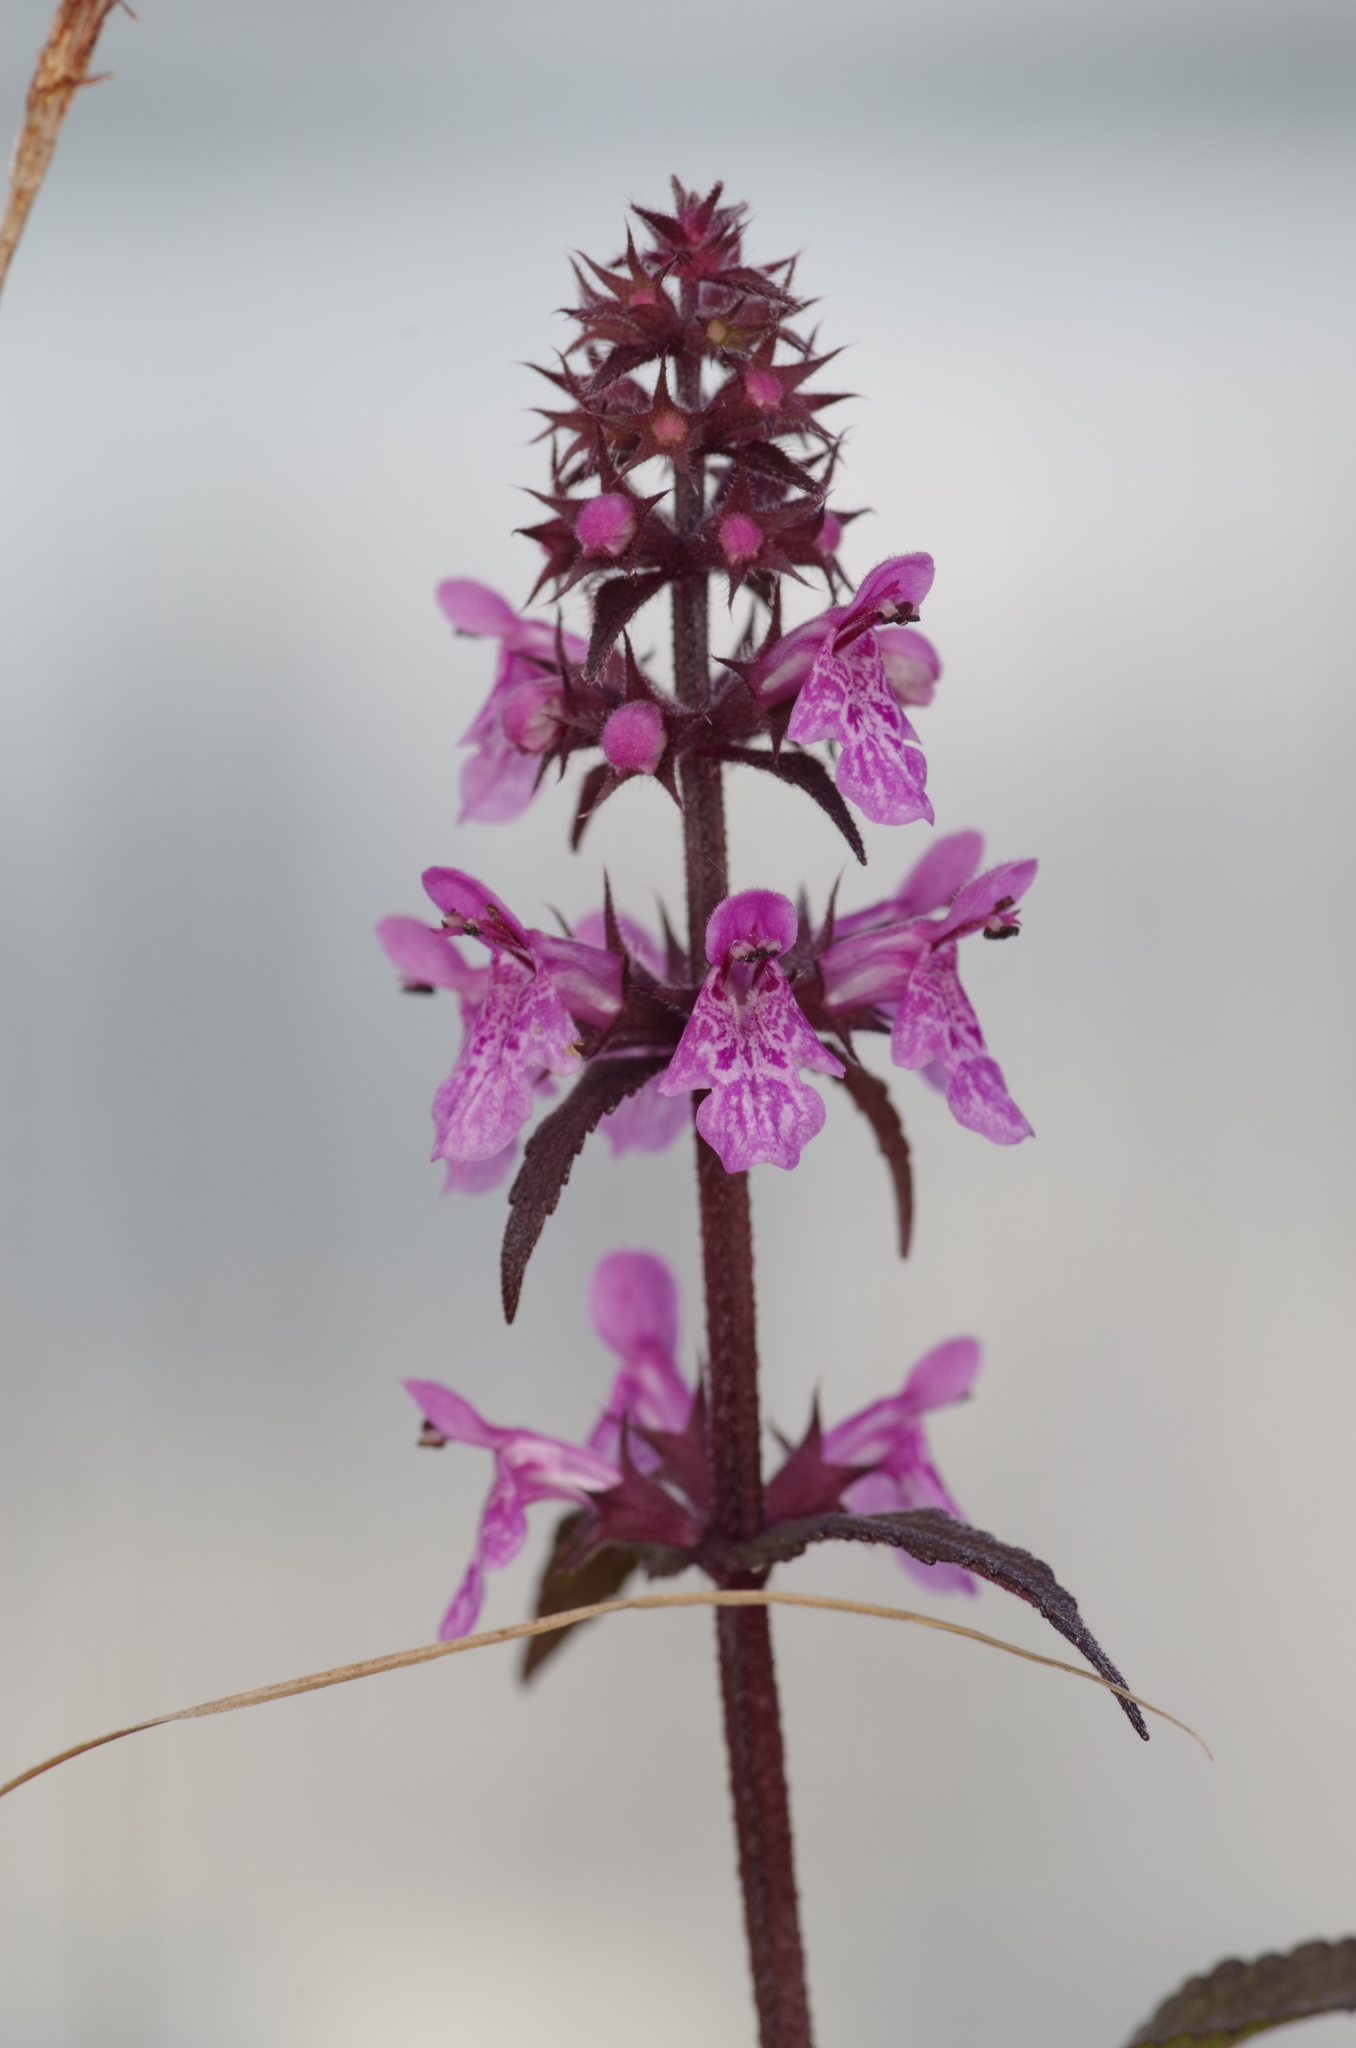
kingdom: Plantae
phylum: Tracheophyta
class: Magnoliopsida
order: Lamiales
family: Lamiaceae
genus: Stachys
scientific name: Stachys palustris
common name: Marsh woundwort
